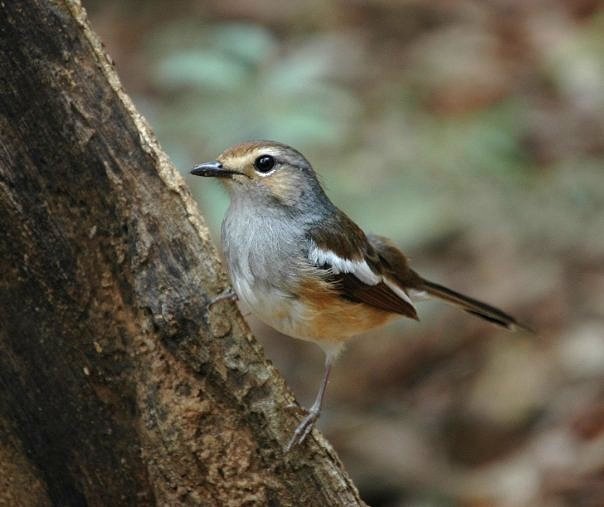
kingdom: Animalia
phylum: Chordata
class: Aves
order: Passeriformes
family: Muscicapidae
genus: Copsychus
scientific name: Copsychus albospecularis
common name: Madagascar magpie-robin
